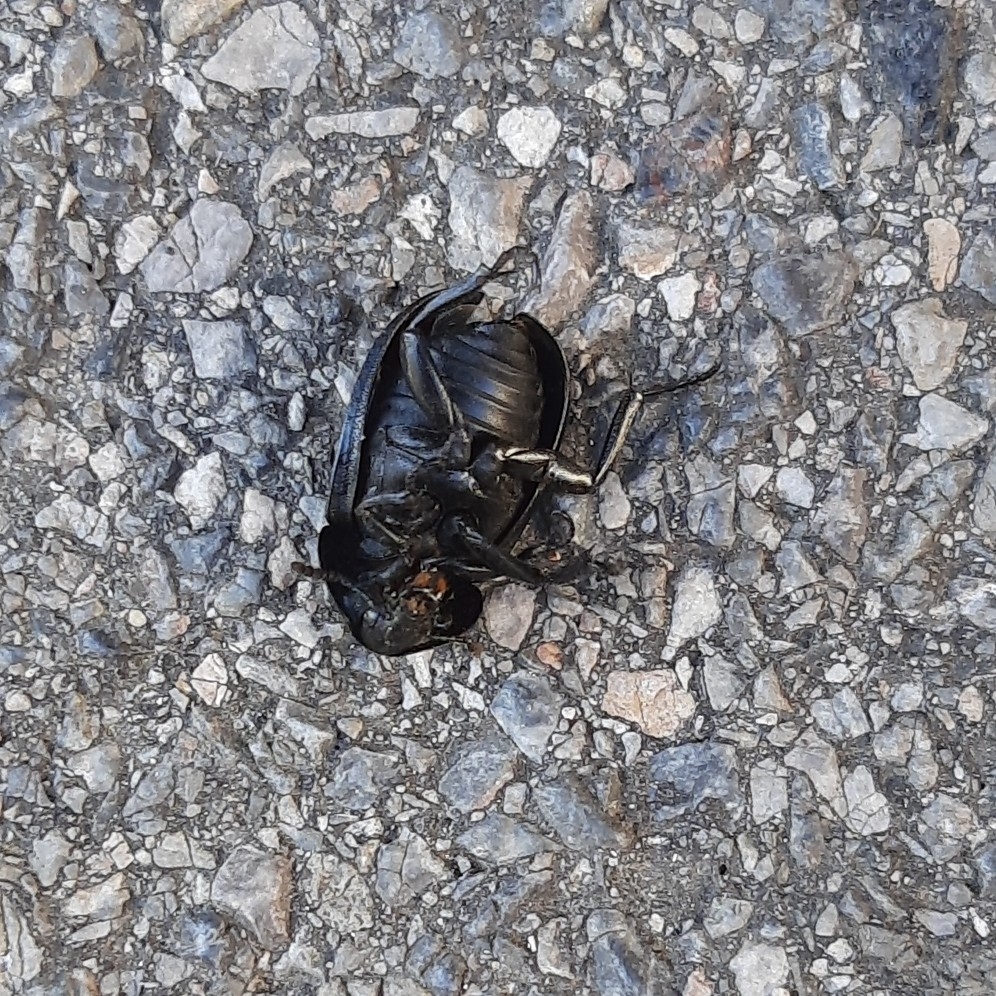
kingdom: Animalia
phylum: Arthropoda
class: Insecta
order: Coleoptera
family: Staphylinidae
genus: Silpha
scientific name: Silpha laevigata
